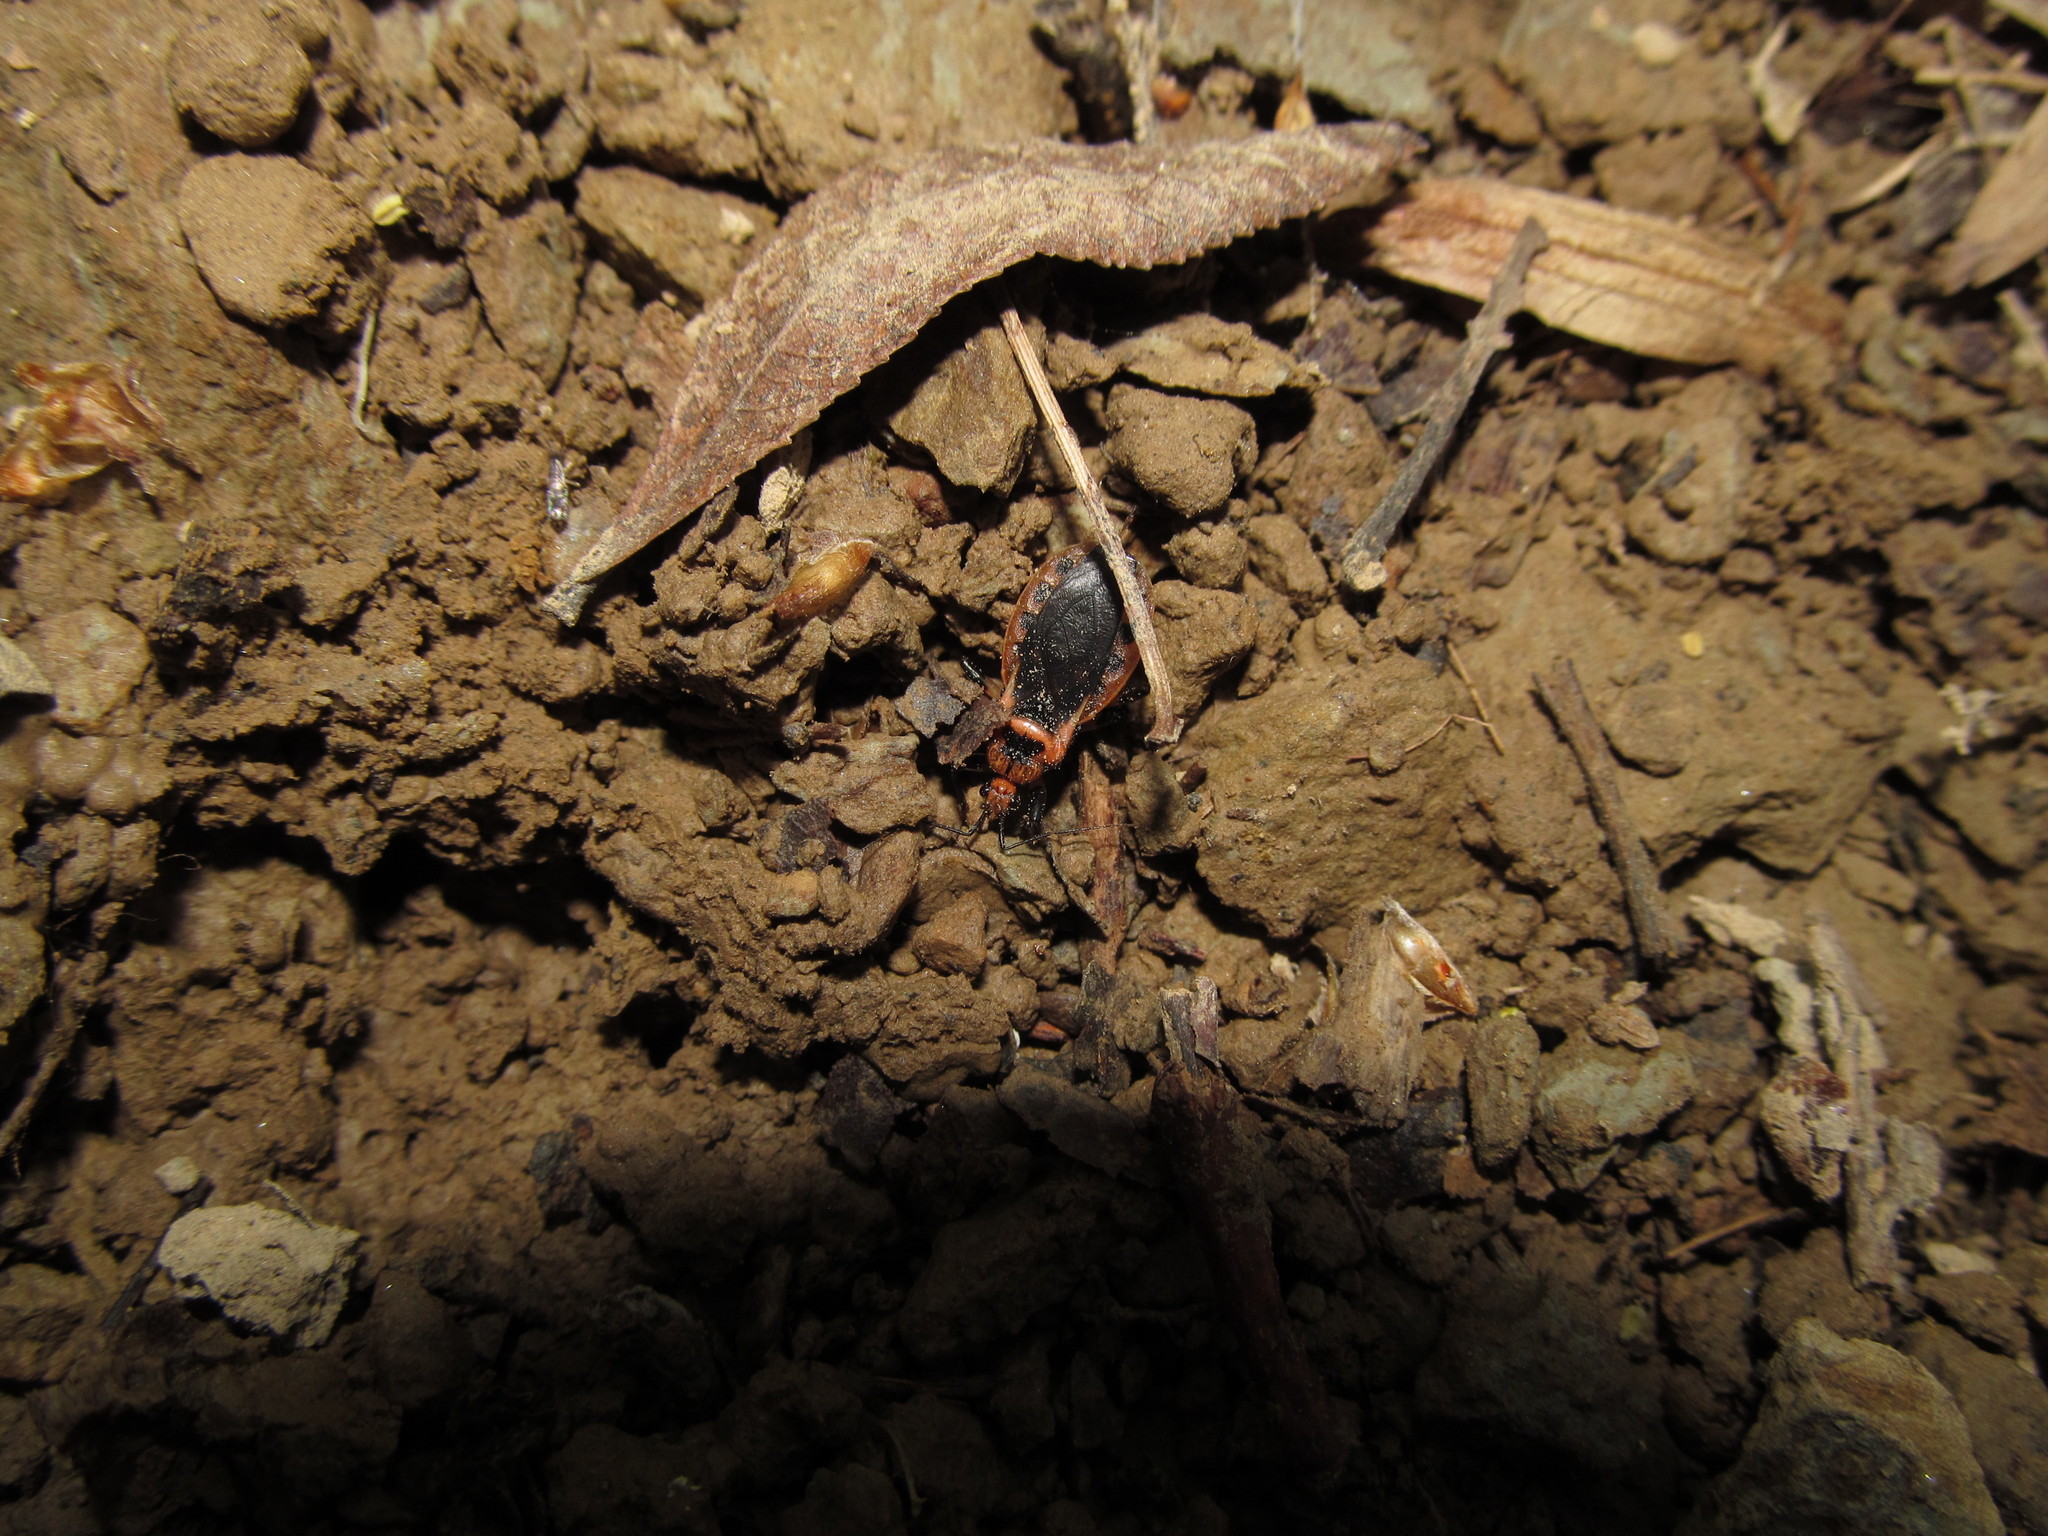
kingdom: Animalia
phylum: Arthropoda
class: Insecta
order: Hemiptera
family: Reduviidae
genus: Rhiginia
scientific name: Rhiginia cruciata
